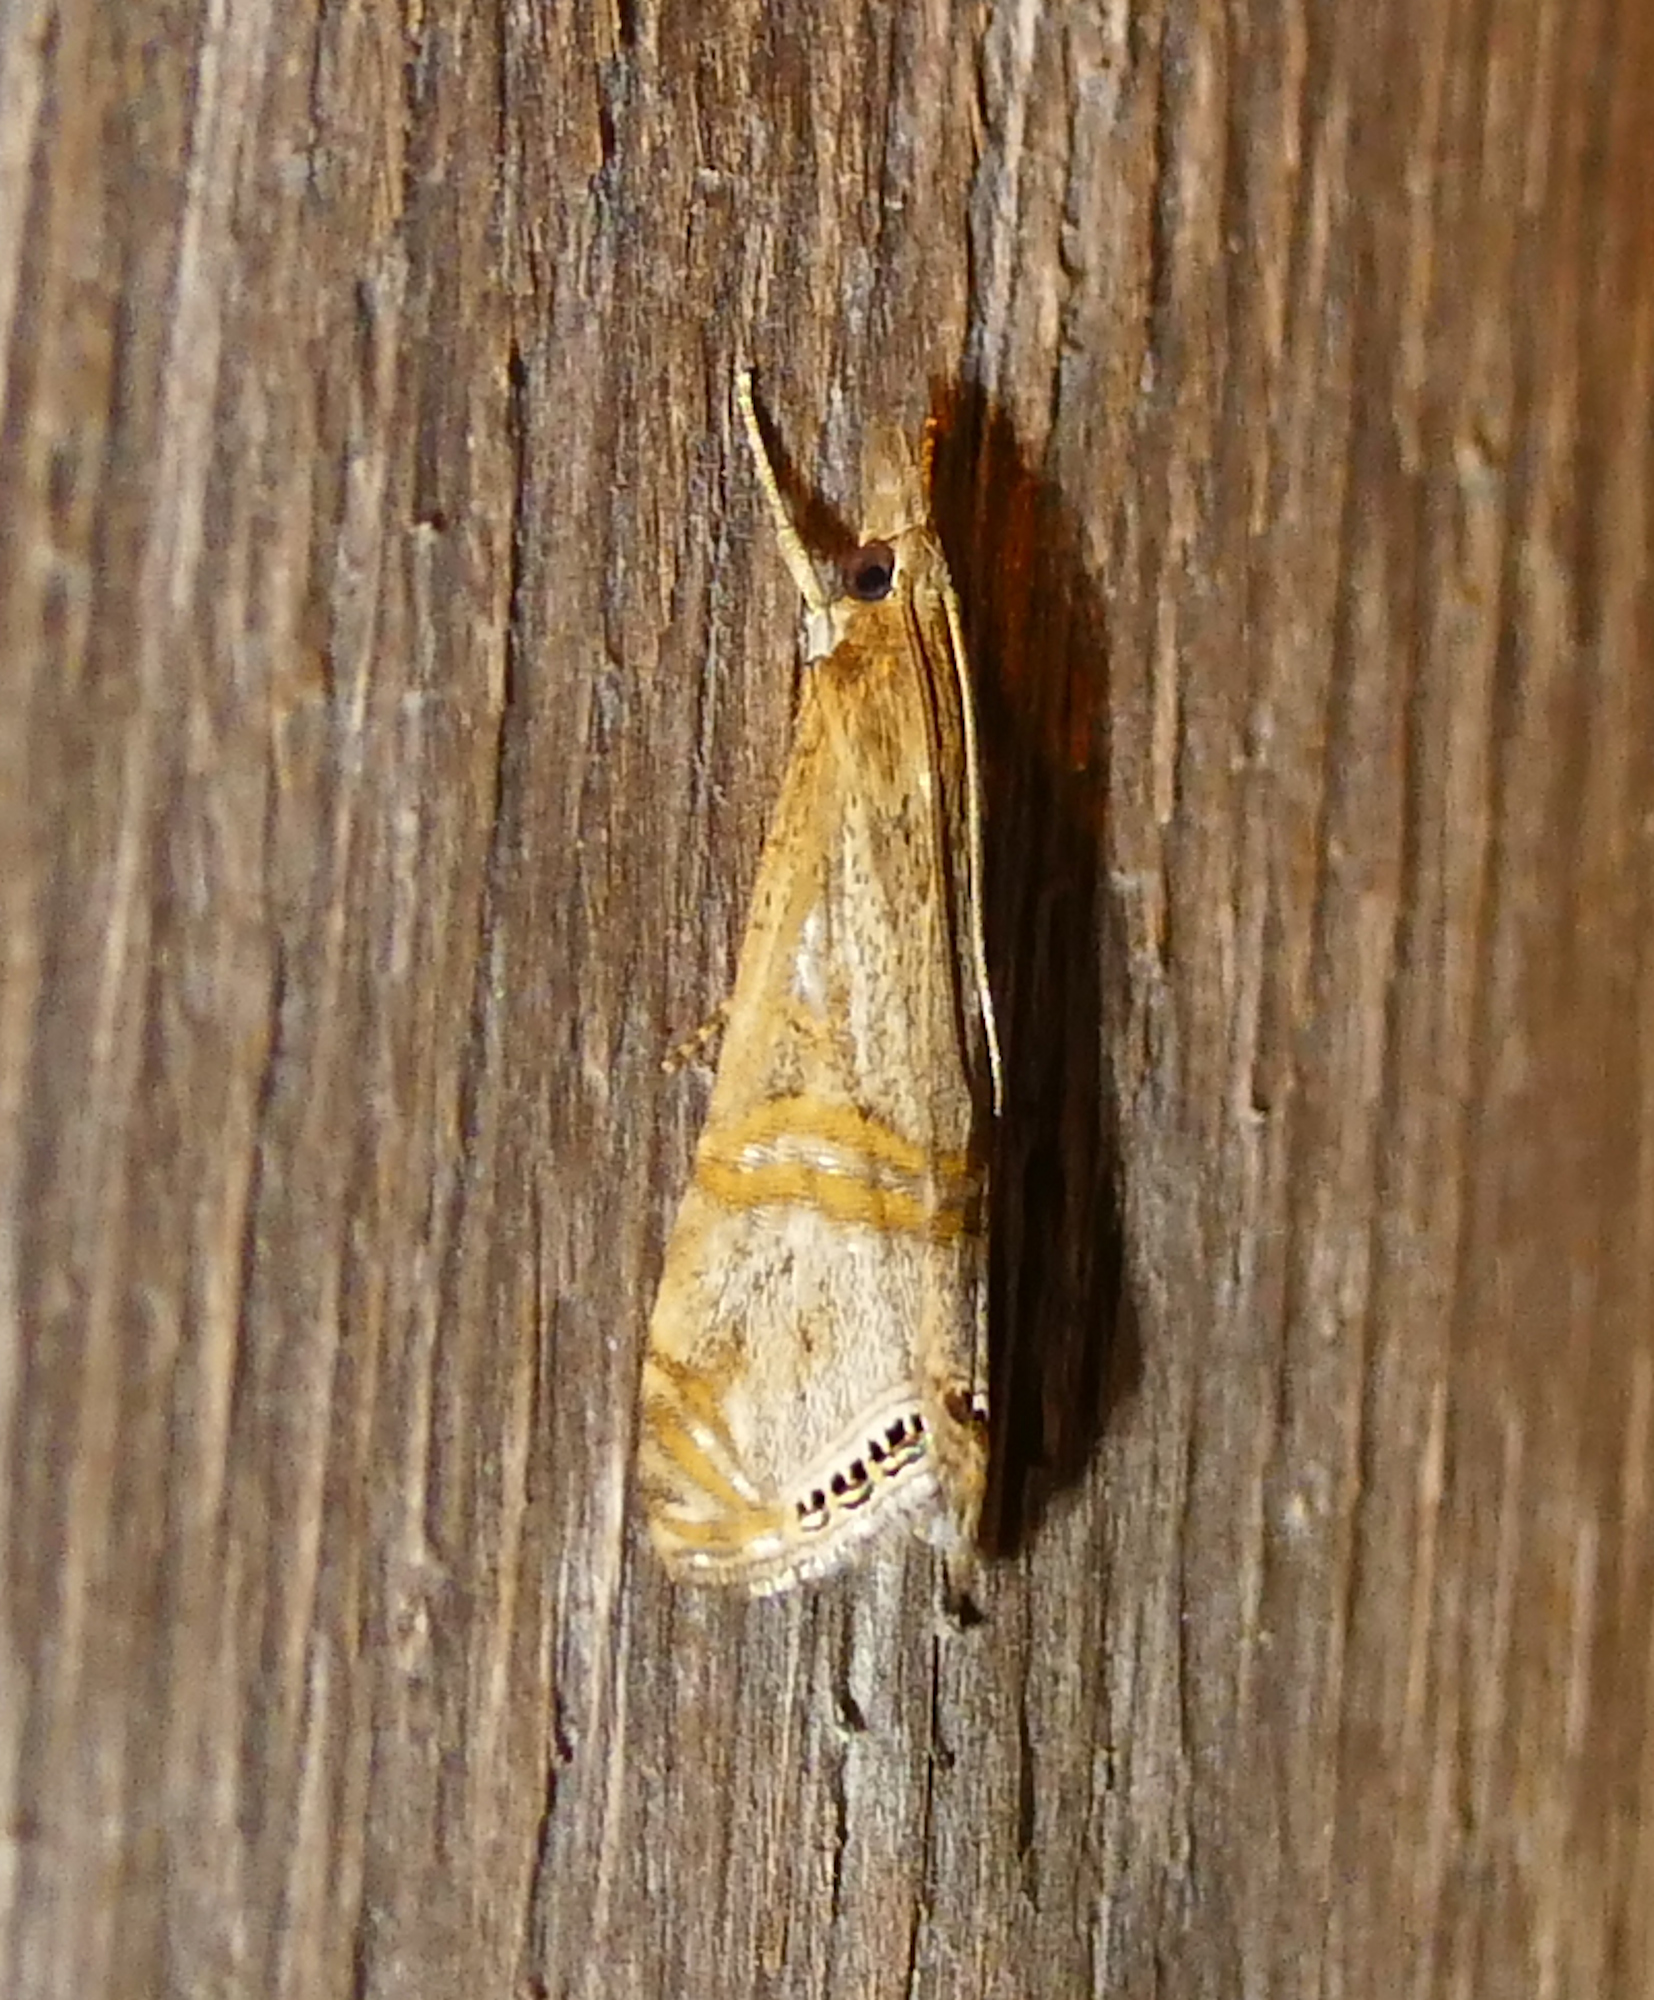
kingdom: Animalia
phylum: Arthropoda
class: Insecta
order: Lepidoptera
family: Crambidae
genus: Euchromius
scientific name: Euchromius ocellea
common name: Necklace veneer moth
